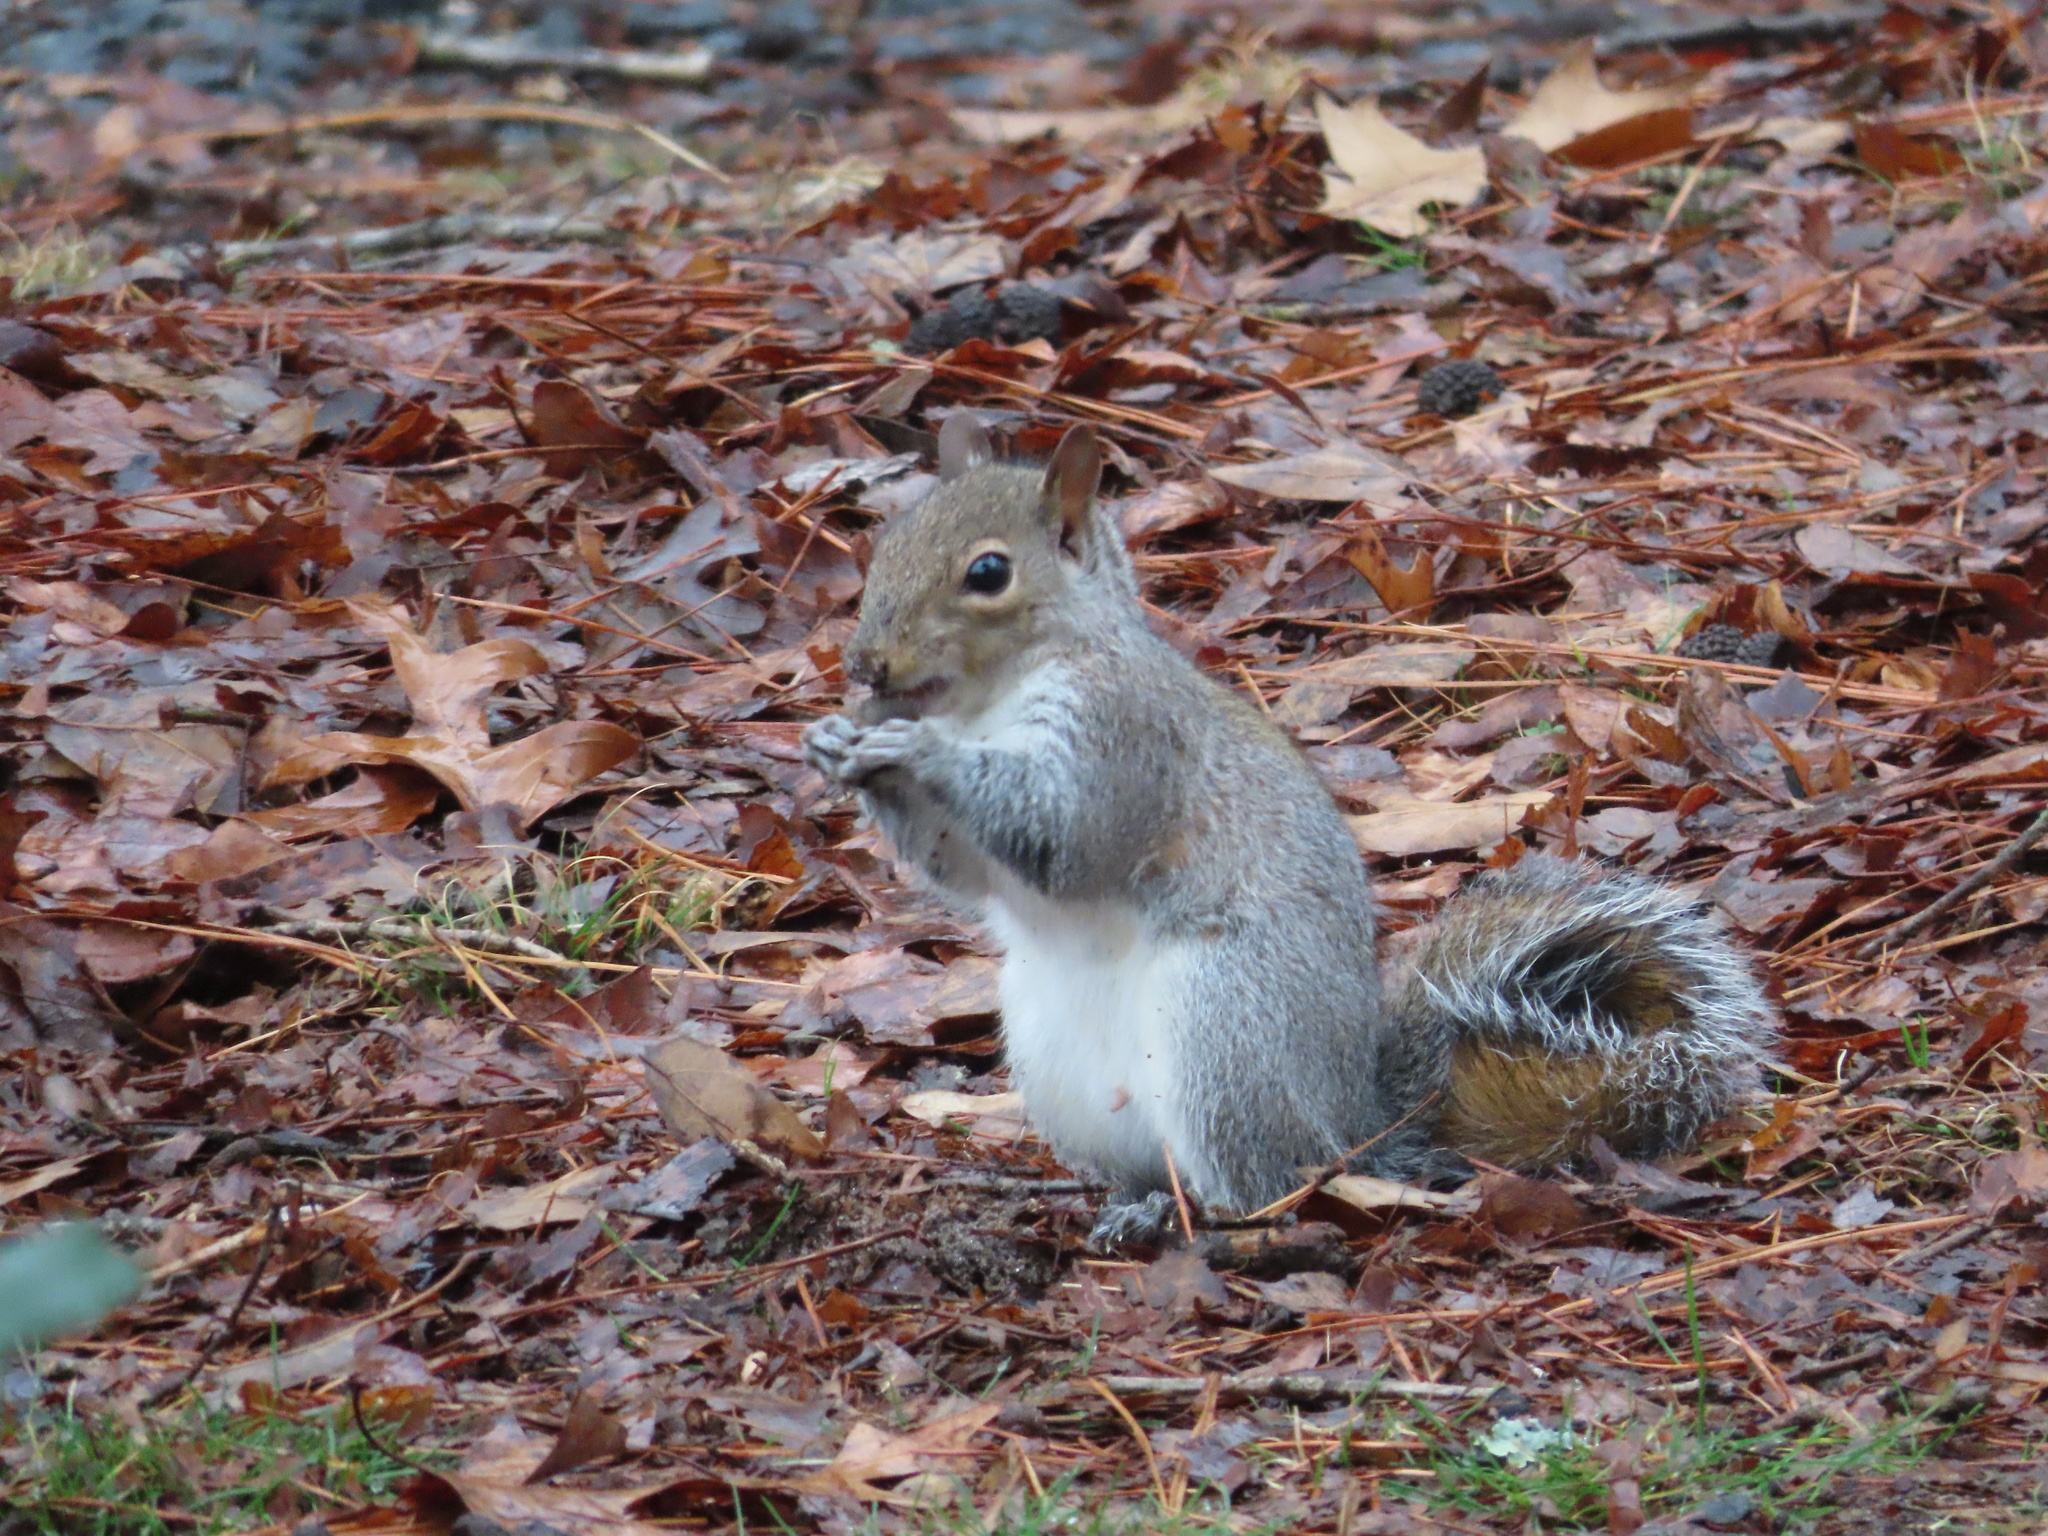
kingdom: Animalia
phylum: Chordata
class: Mammalia
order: Rodentia
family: Sciuridae
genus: Sciurus
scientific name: Sciurus carolinensis
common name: Eastern gray squirrel
